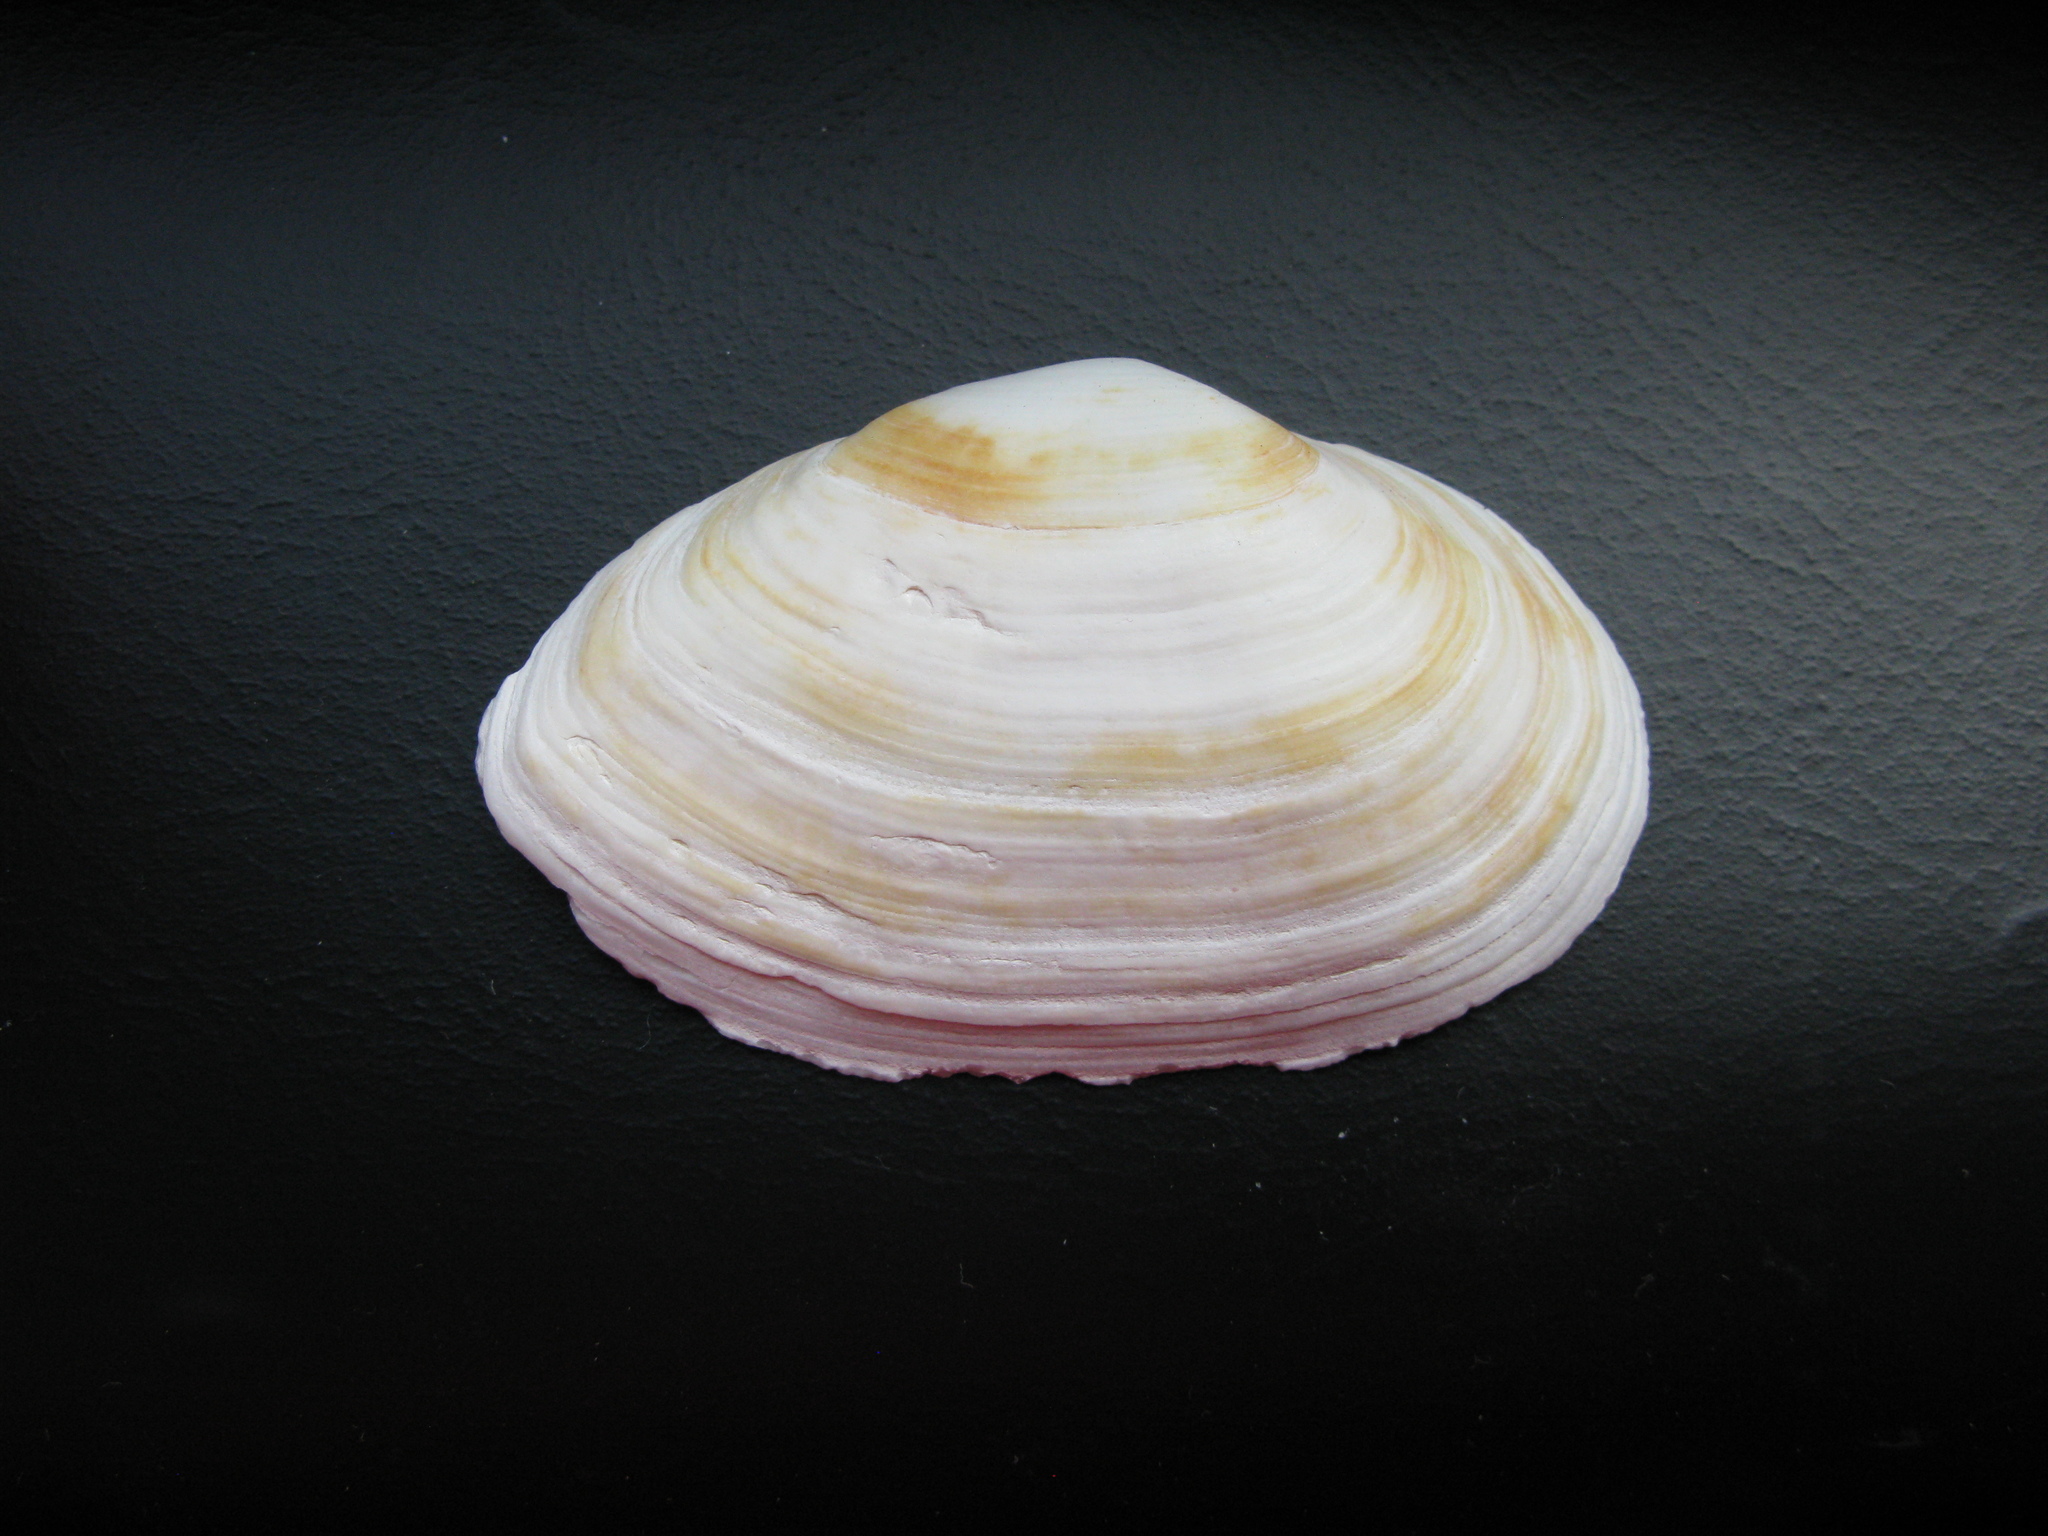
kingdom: Animalia
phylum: Mollusca
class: Bivalvia
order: Myida
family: Myidae
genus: Mya
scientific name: Mya arenaria
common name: Soft-shelled clam
